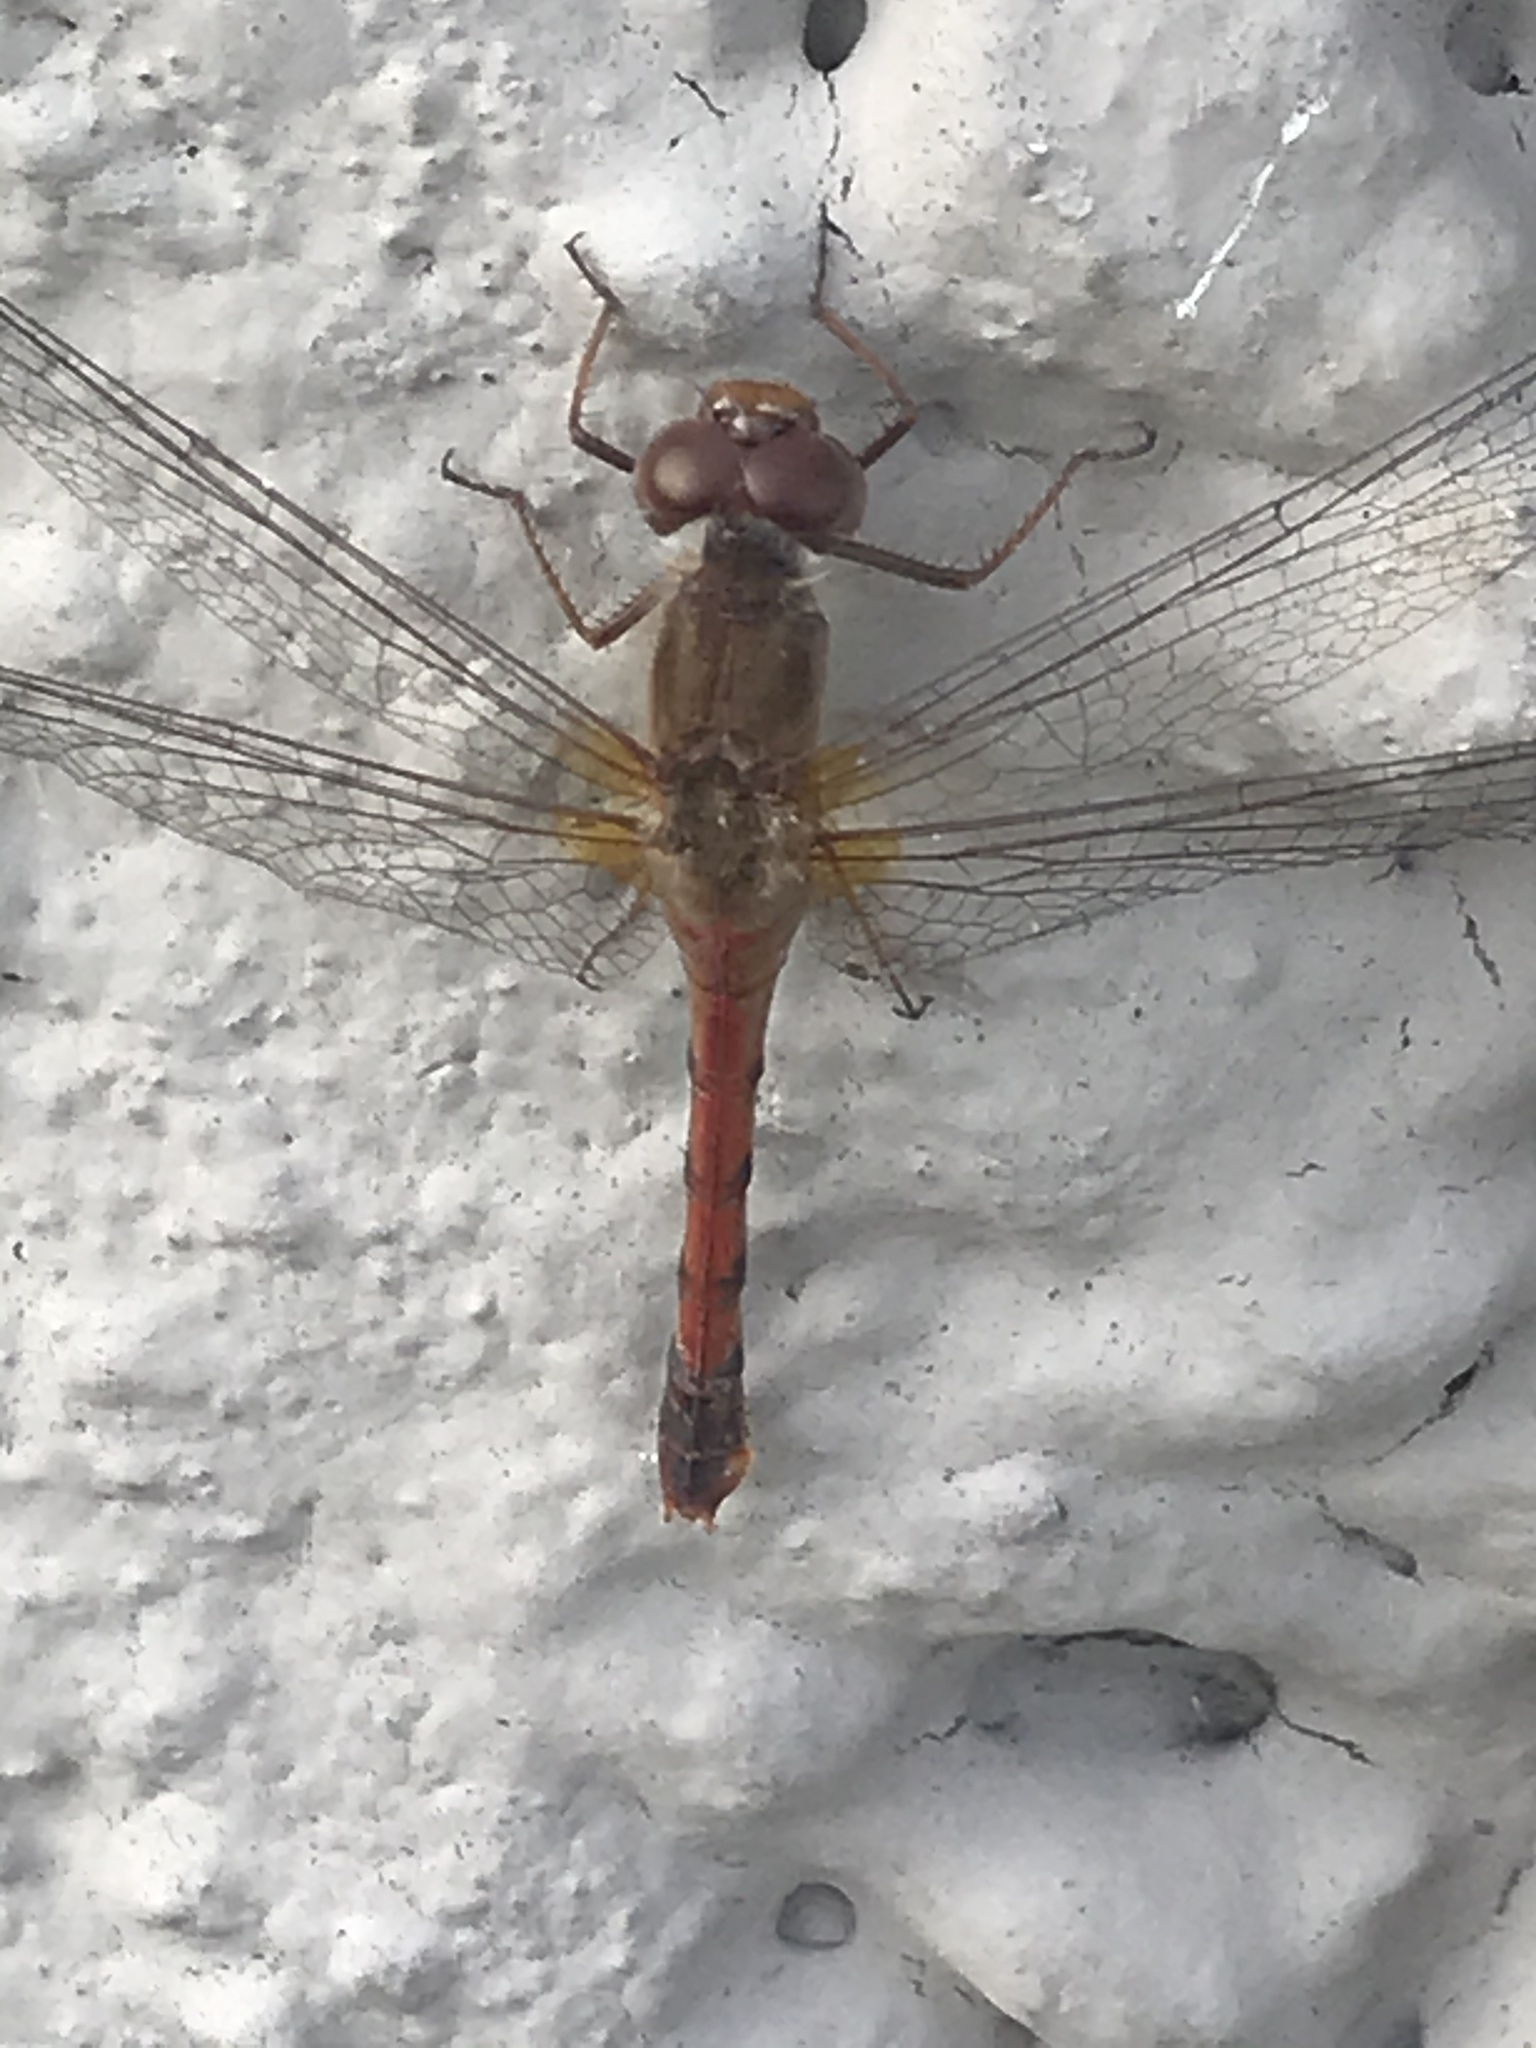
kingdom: Animalia
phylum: Arthropoda
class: Insecta
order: Odonata
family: Libellulidae
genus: Sympetrum
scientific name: Sympetrum vicinum
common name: Autumn meadowhawk
